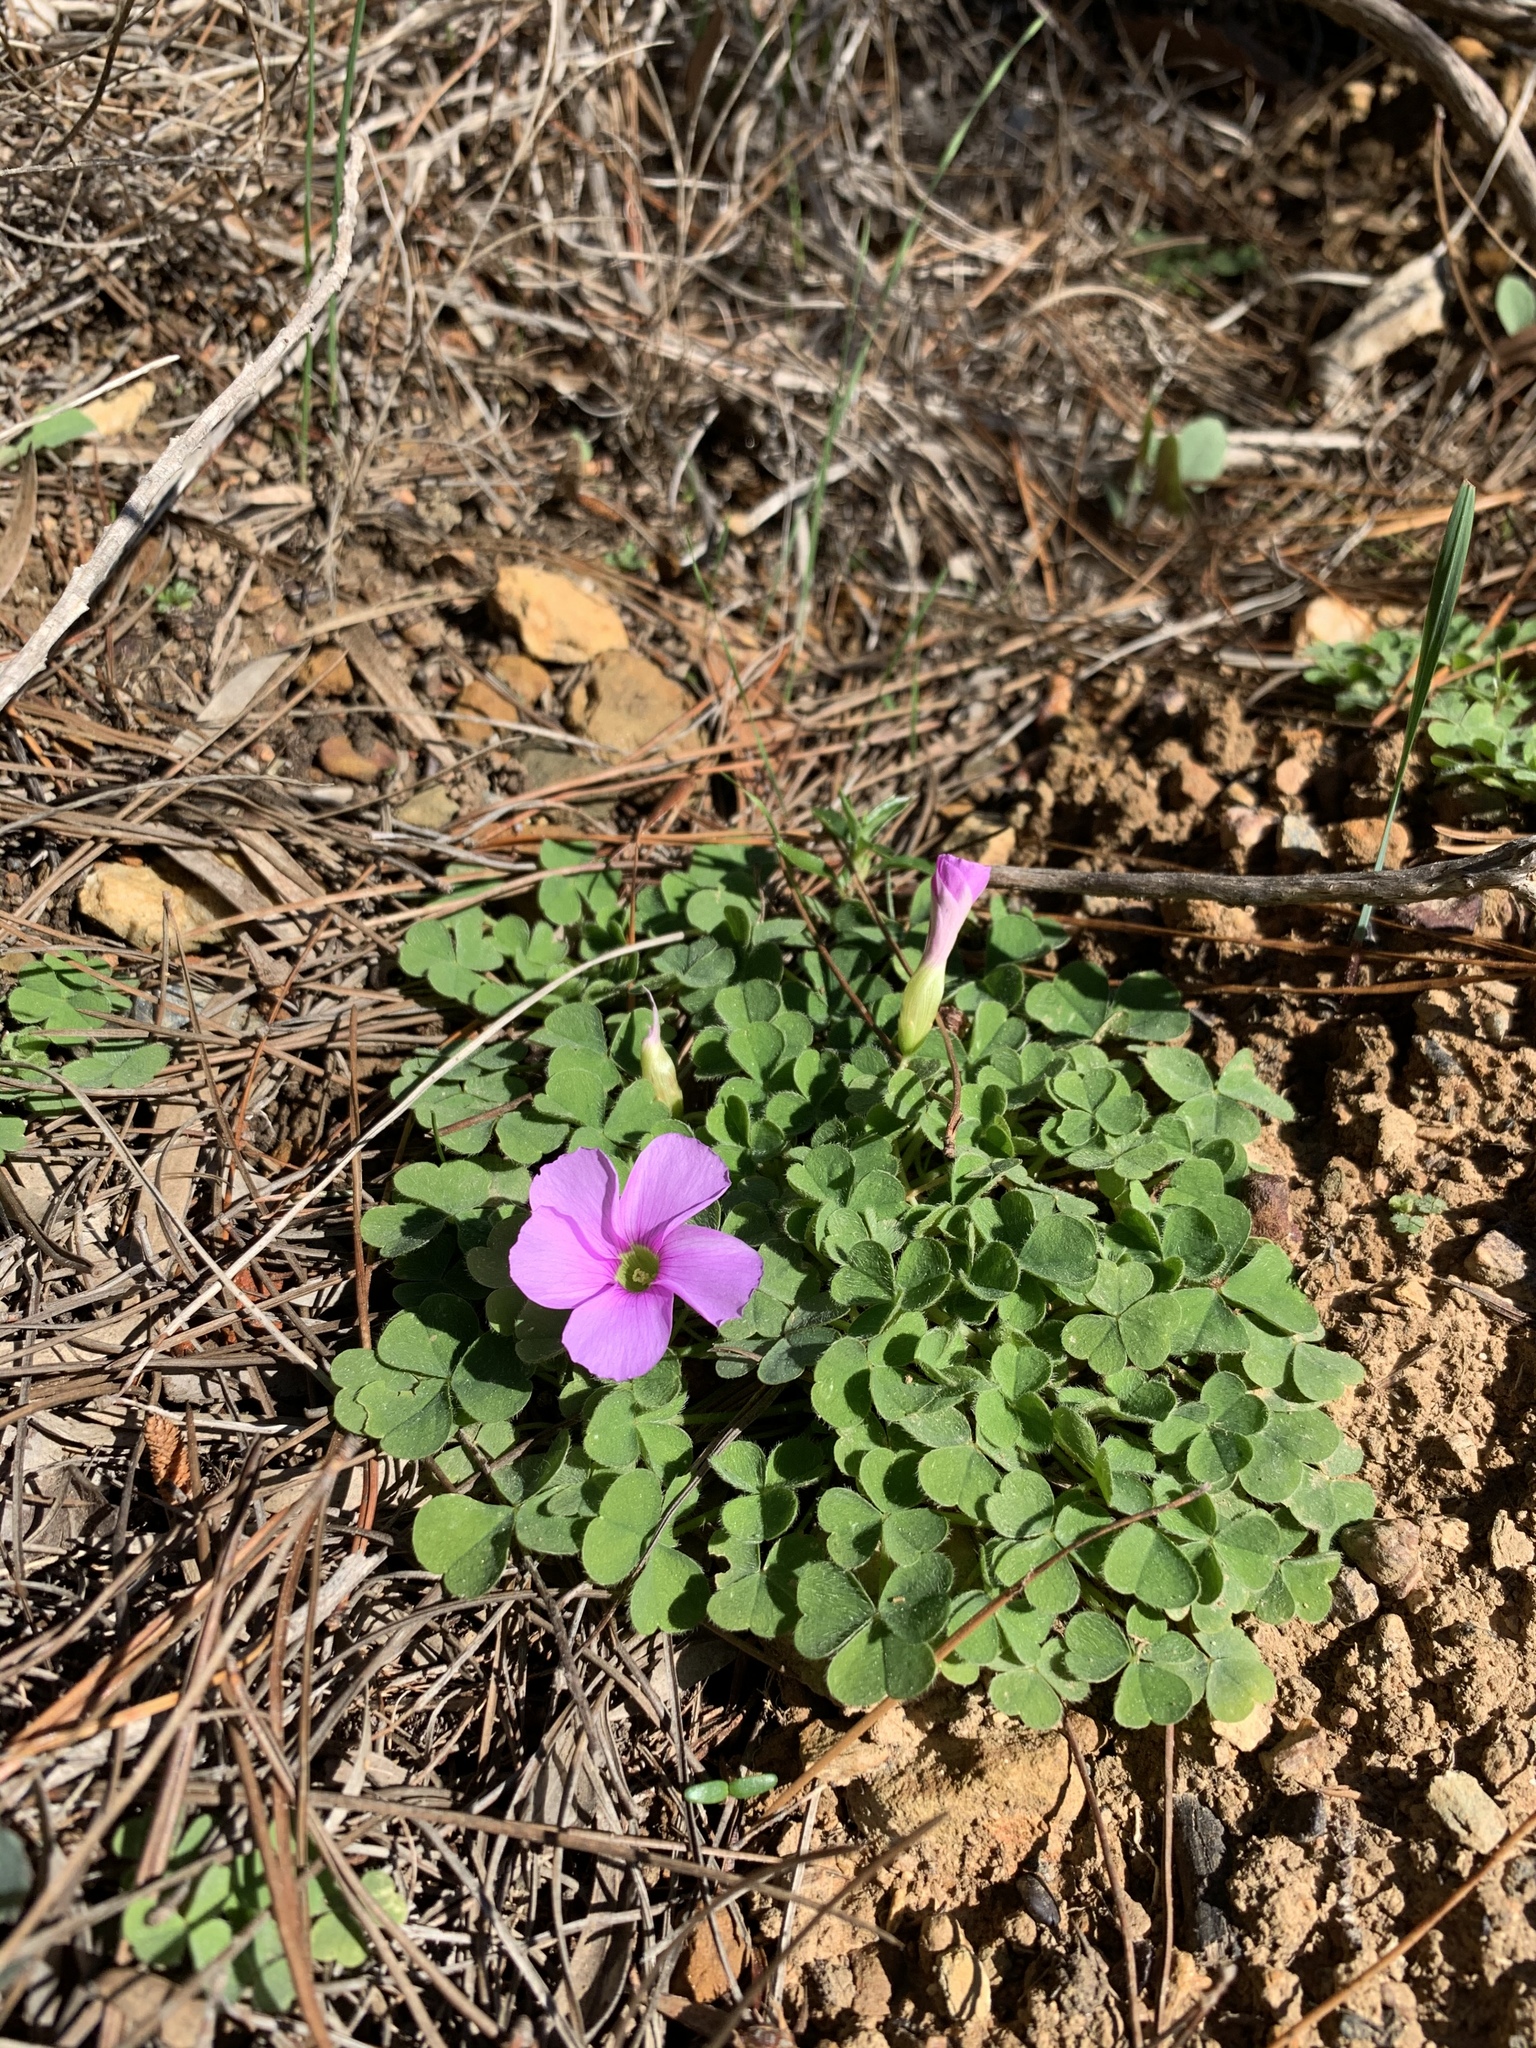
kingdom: Plantae
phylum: Tracheophyta
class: Magnoliopsida
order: Oxalidales
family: Oxalidaceae
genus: Oxalis
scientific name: Oxalis zeekoevleyensis
